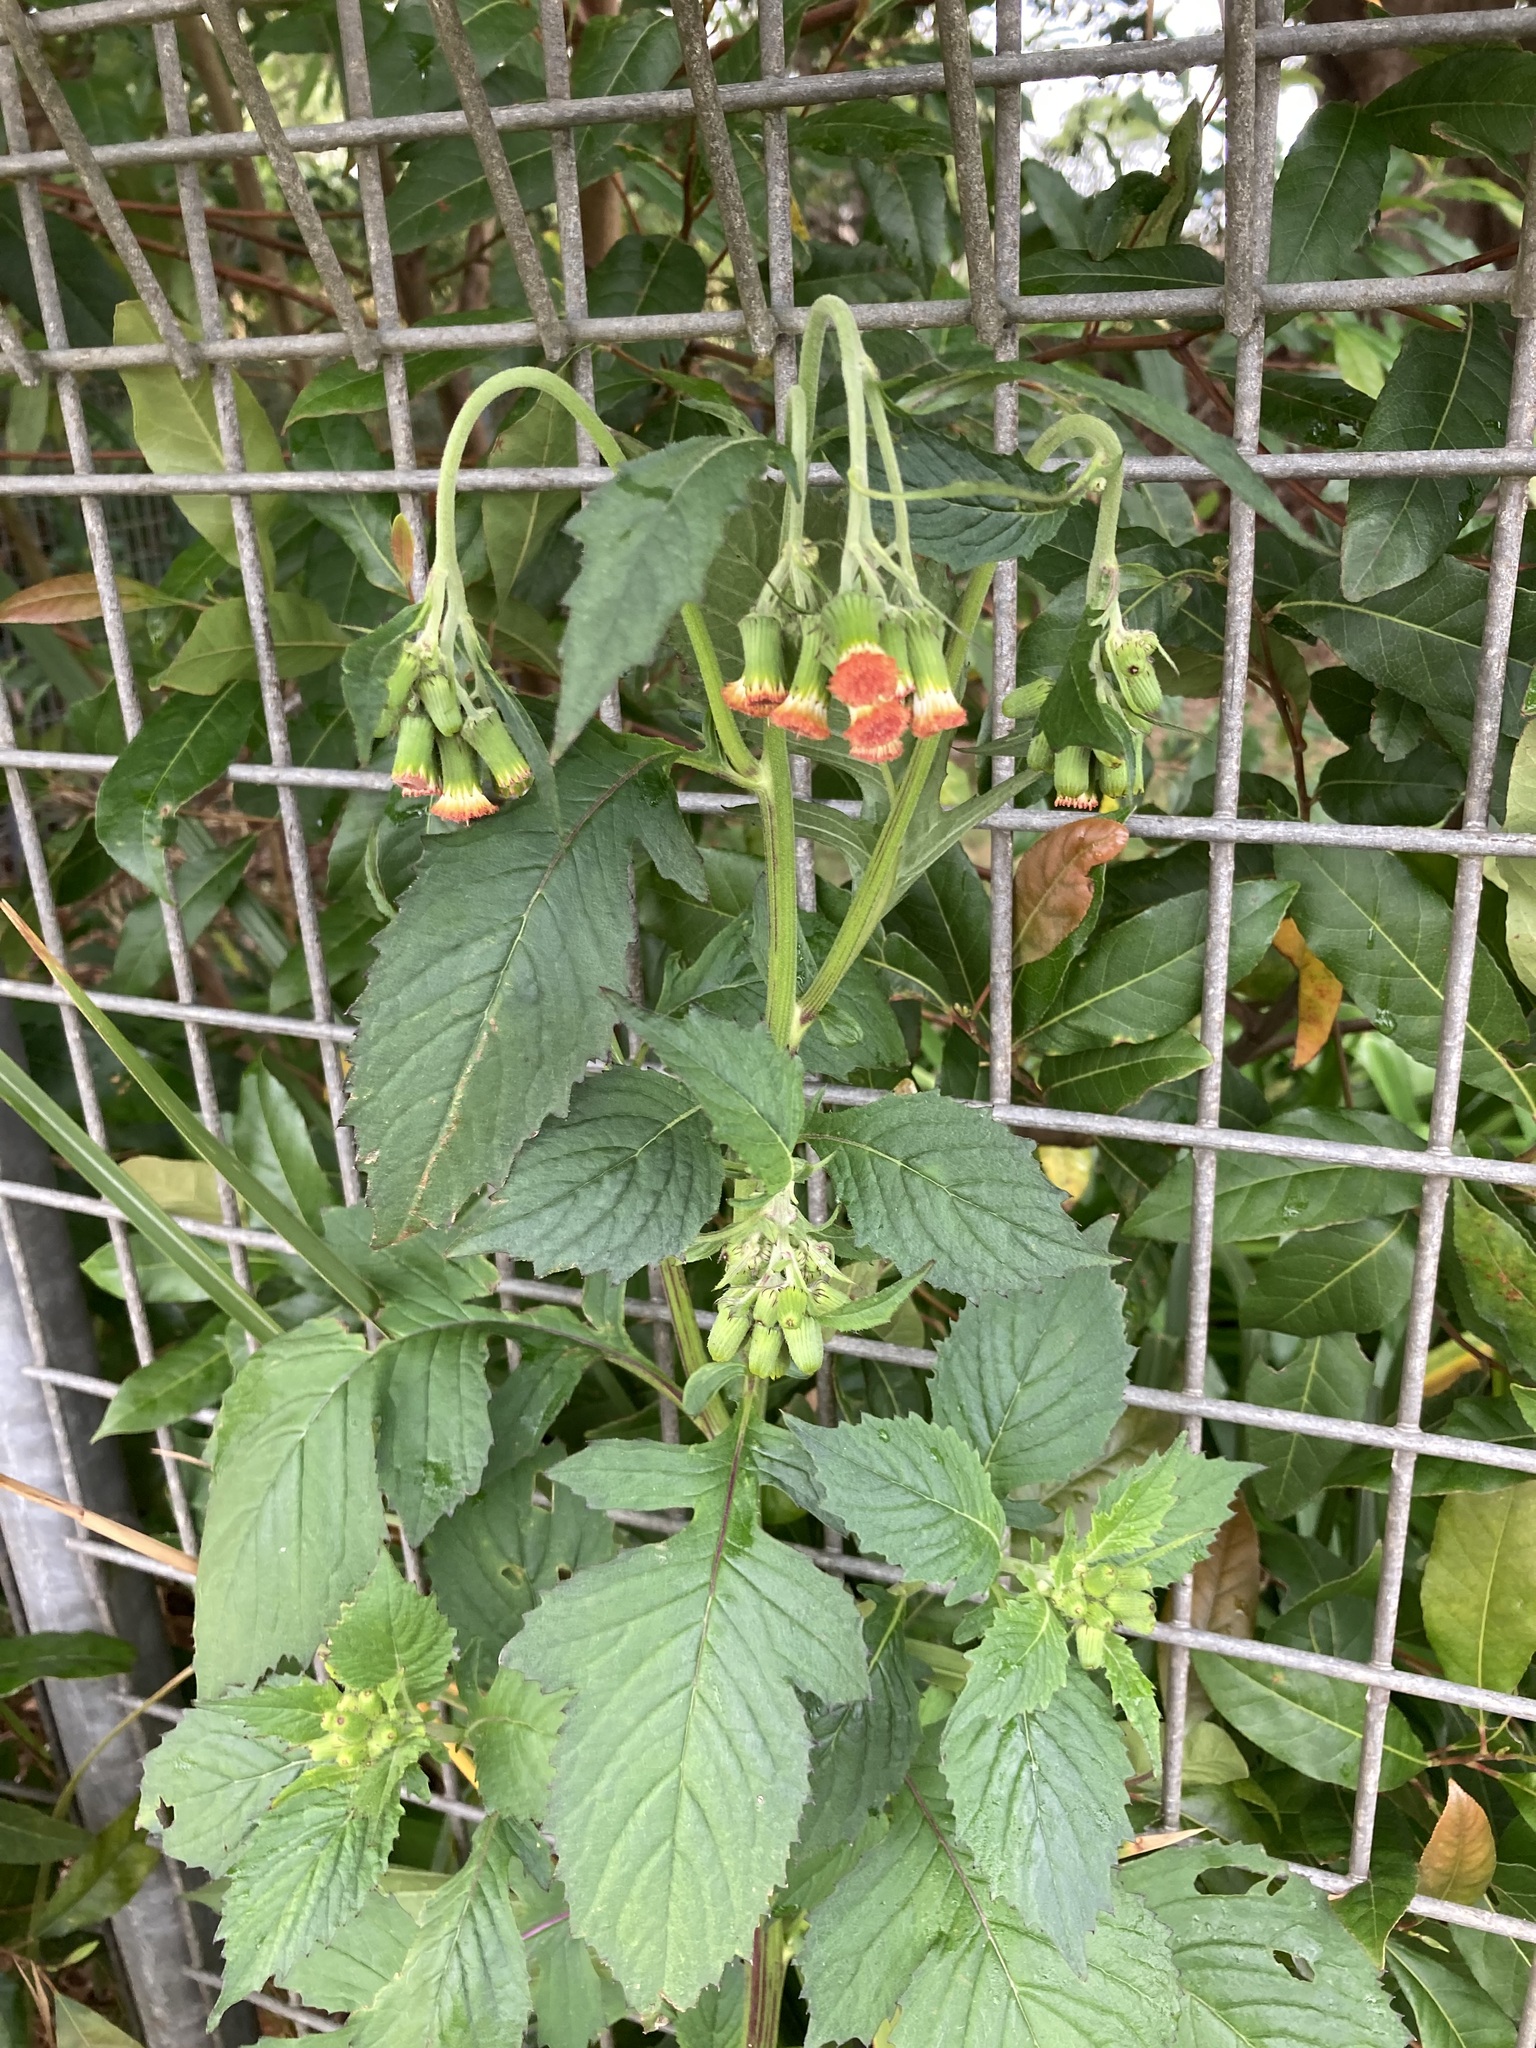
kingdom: Plantae
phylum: Tracheophyta
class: Magnoliopsida
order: Asterales
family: Asteraceae
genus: Crassocephalum
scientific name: Crassocephalum crepidioides
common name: Redflower ragleaf
